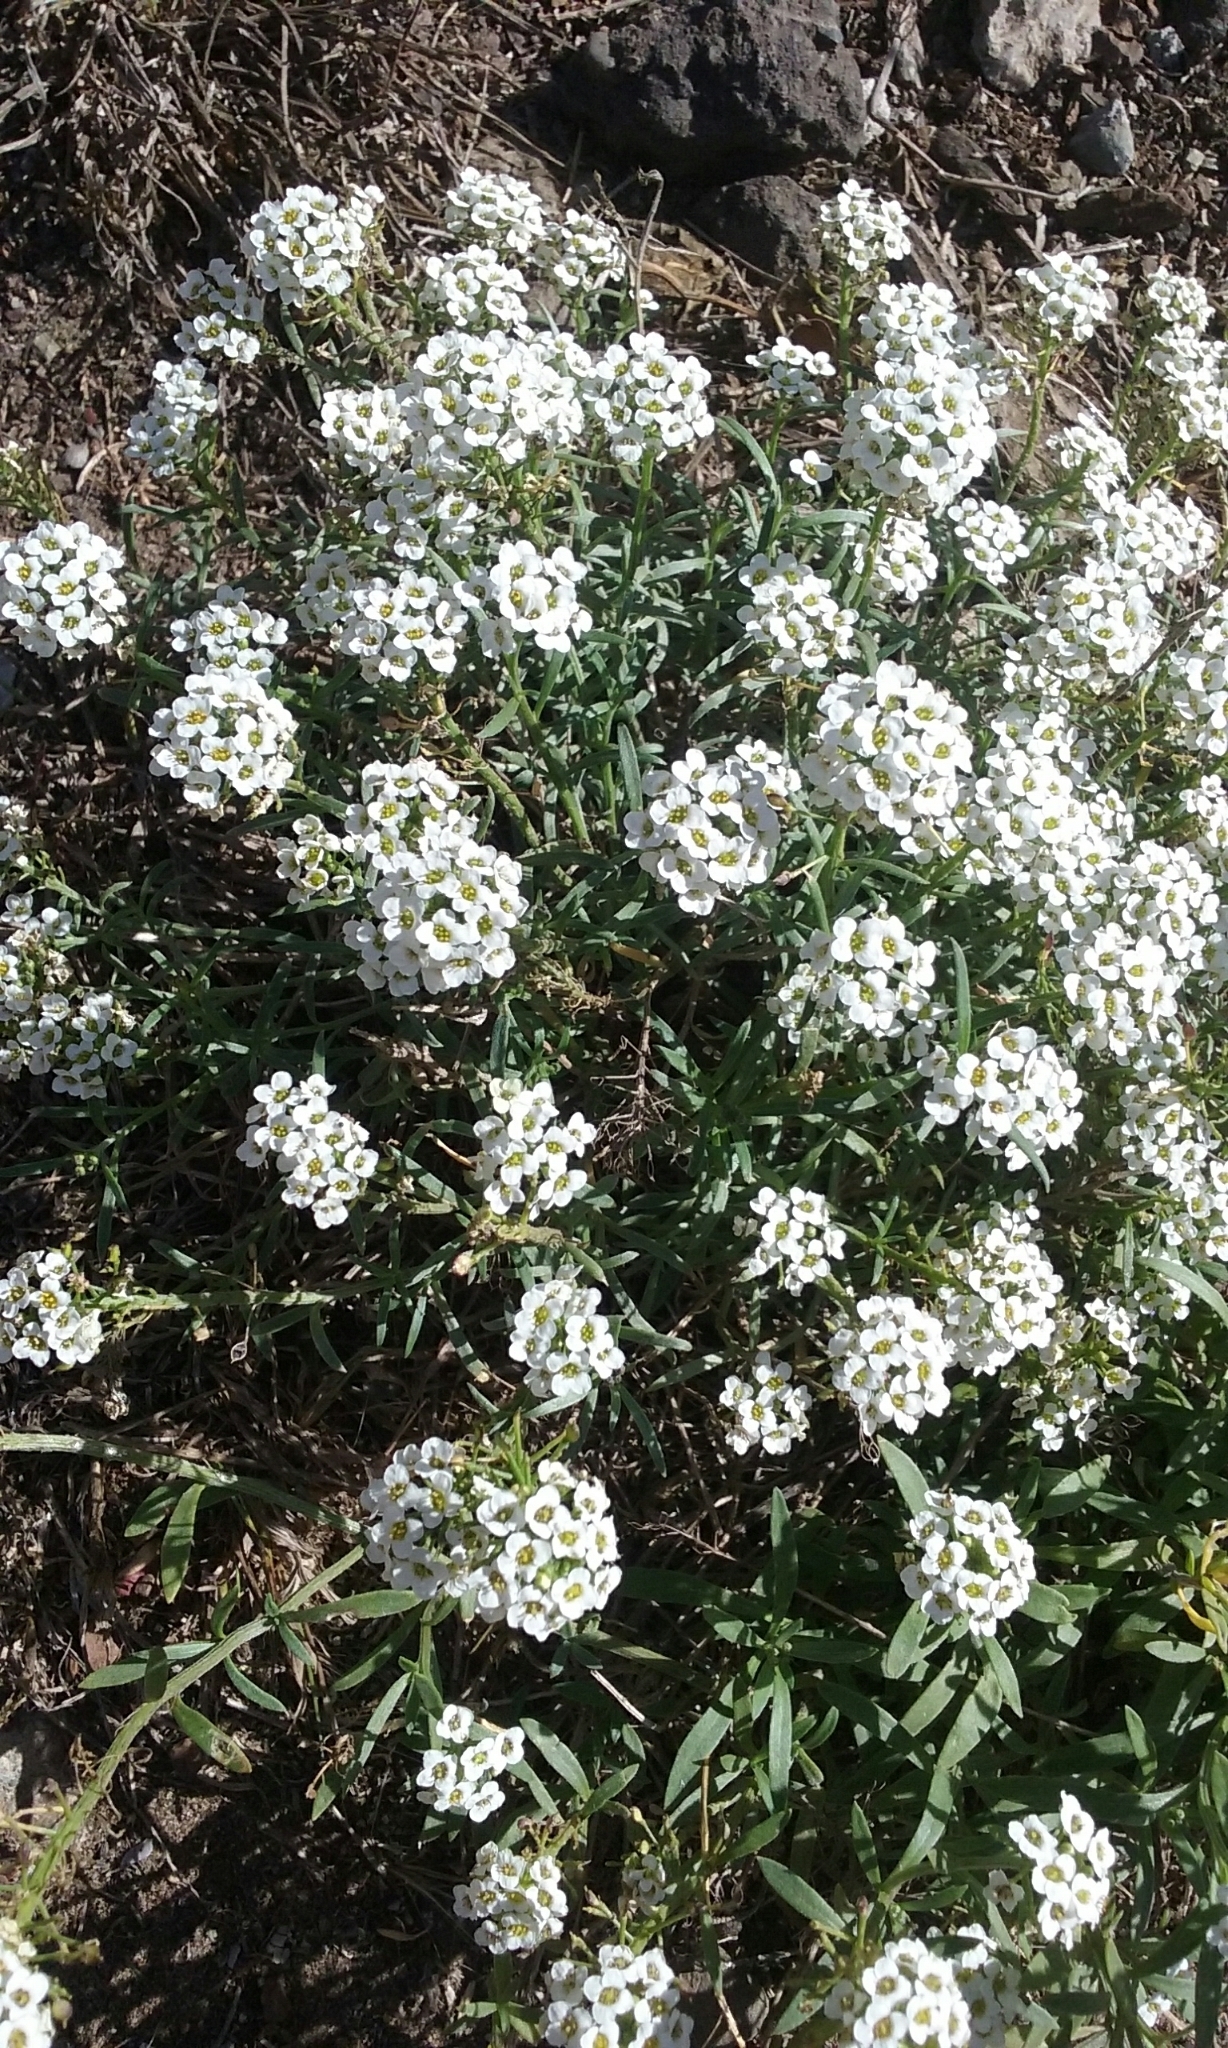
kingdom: Plantae
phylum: Tracheophyta
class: Magnoliopsida
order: Brassicales
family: Brassicaceae
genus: Lobularia
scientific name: Lobularia maritima
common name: Sweet alison
